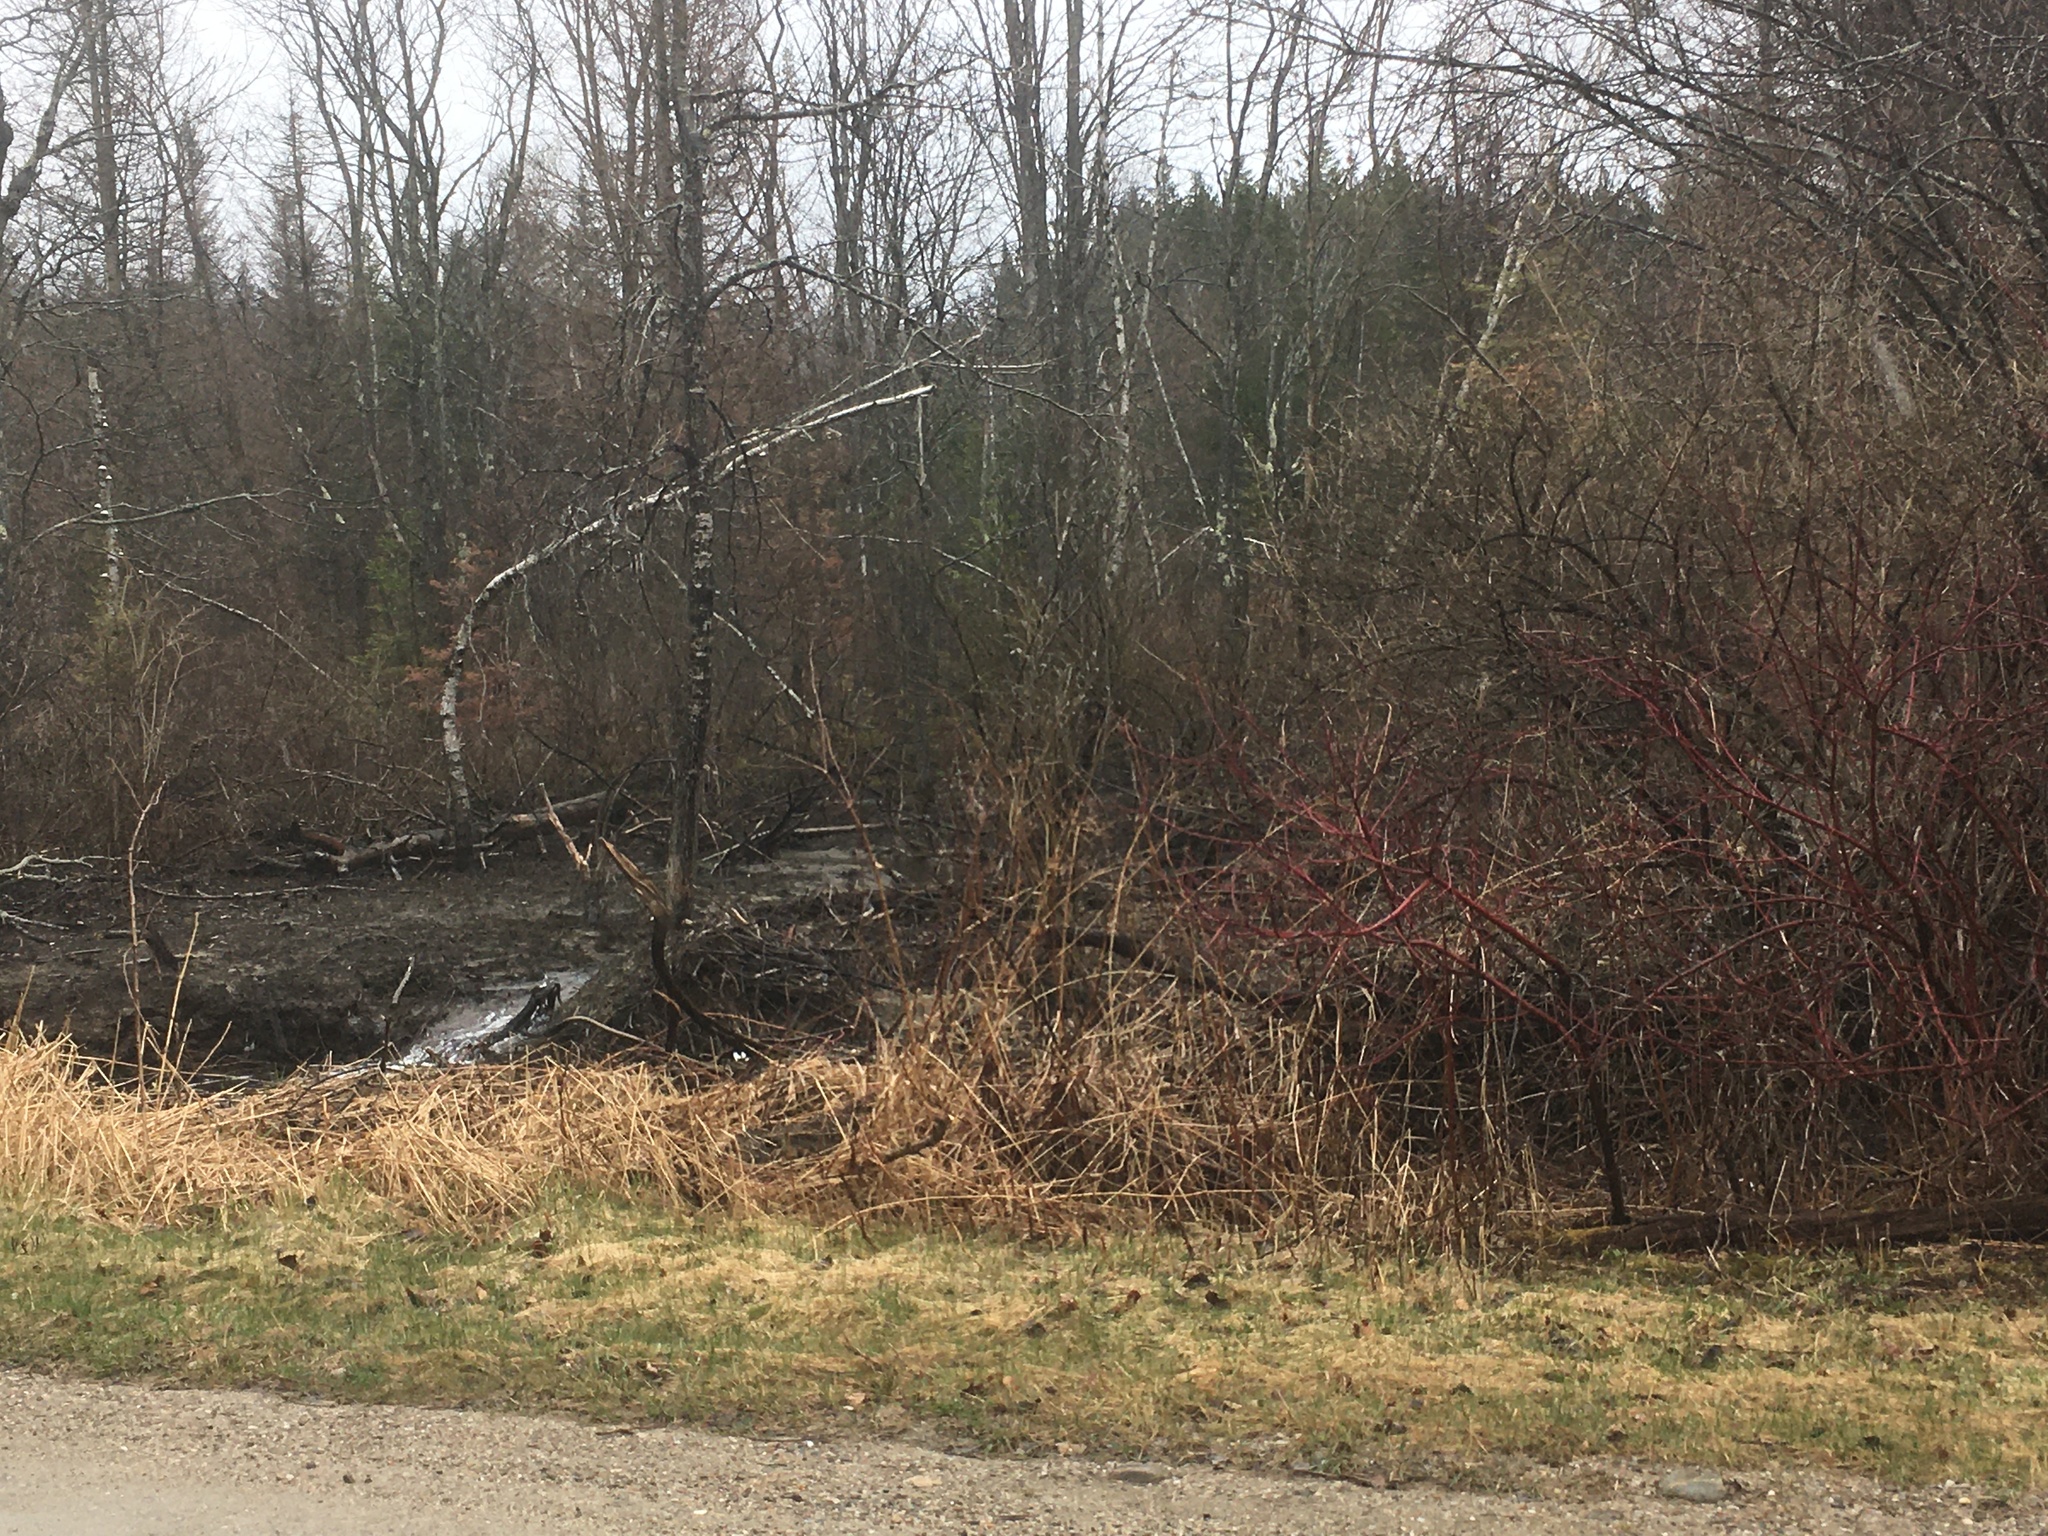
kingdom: Plantae
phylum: Tracheophyta
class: Magnoliopsida
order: Cornales
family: Cornaceae
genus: Cornus
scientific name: Cornus sericea
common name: Red-osier dogwood
